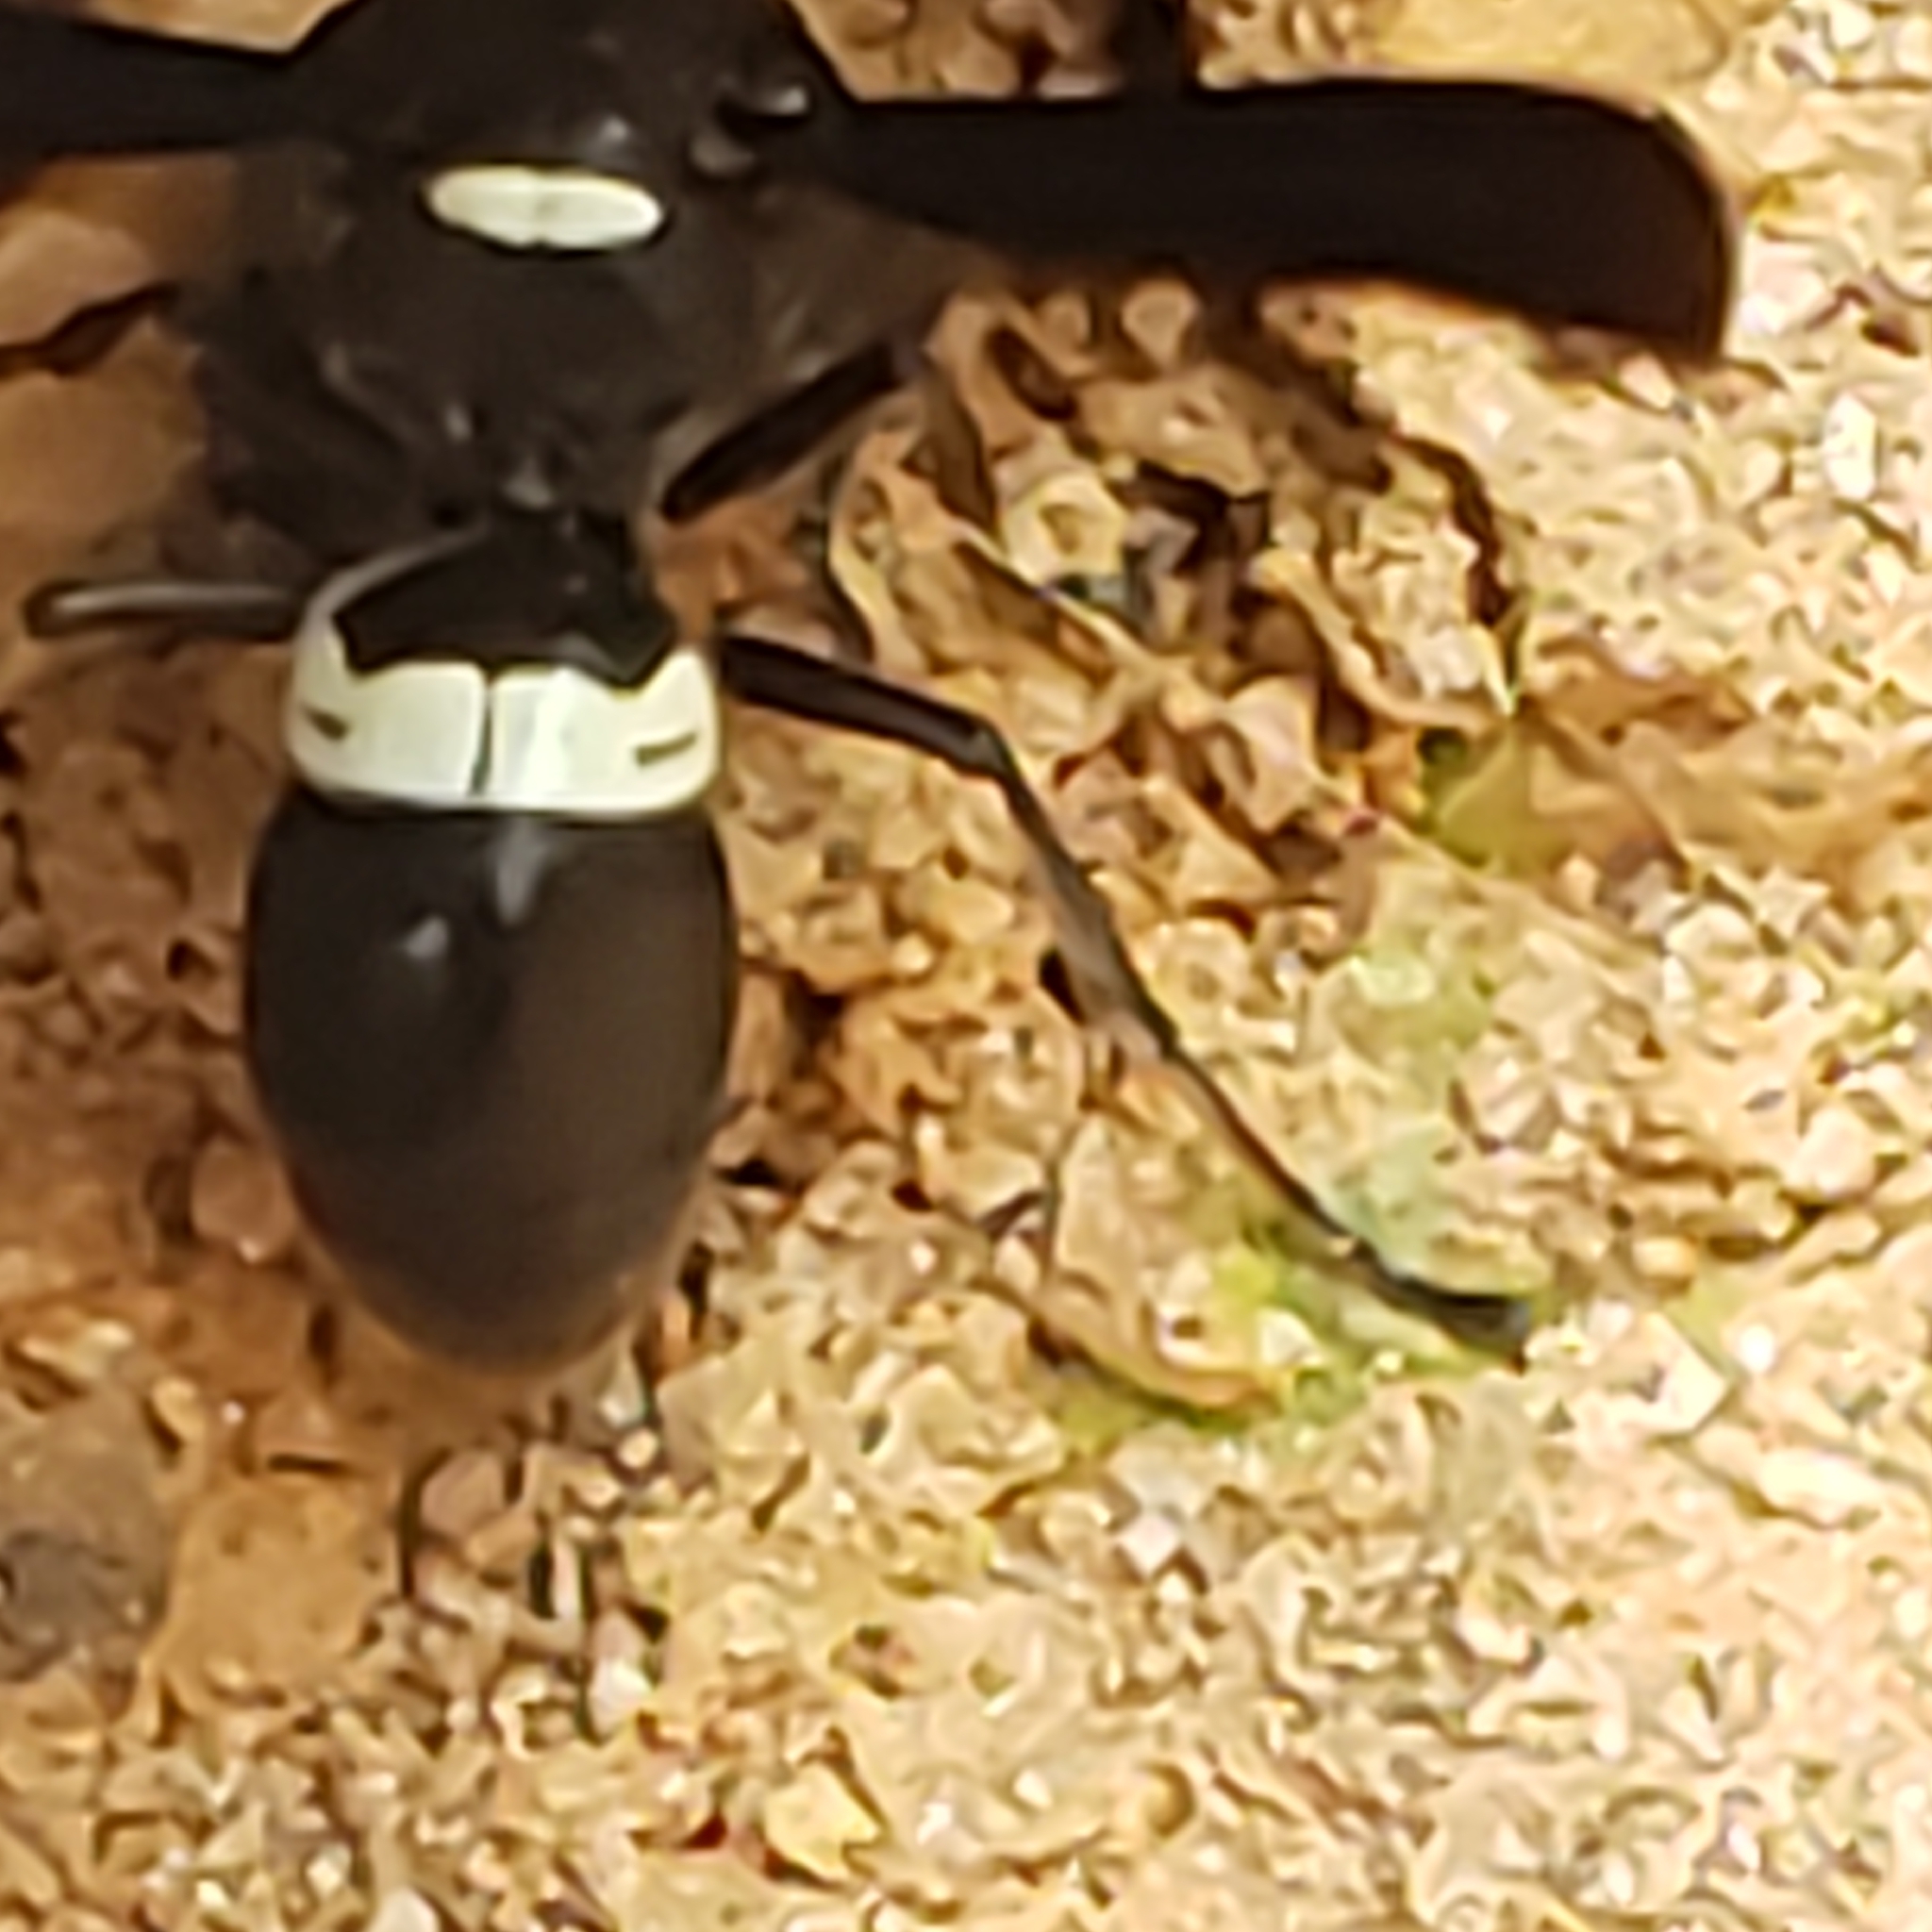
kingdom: Animalia
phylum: Arthropoda
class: Insecta
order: Hymenoptera
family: Eumenidae
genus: Monobia
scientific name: Monobia quadridens
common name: Four-toothed mason wasp
